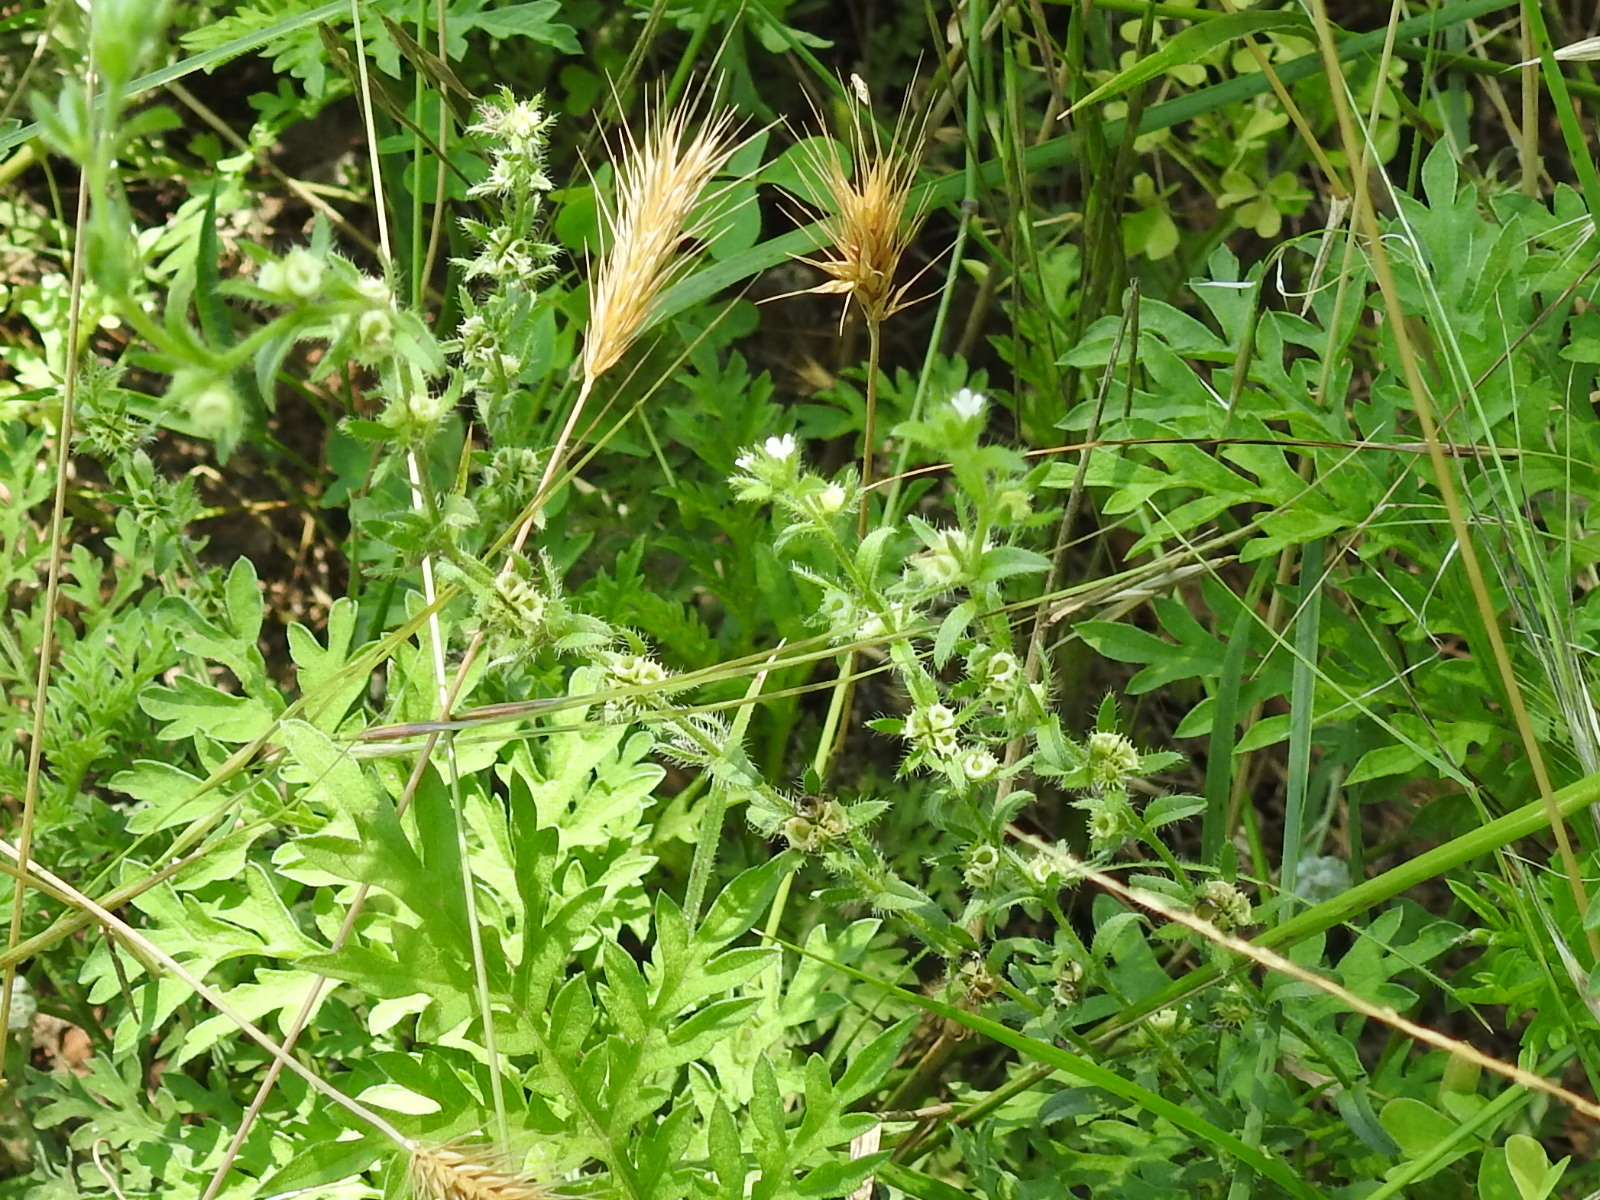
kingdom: Plantae
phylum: Tracheophyta
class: Magnoliopsida
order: Boraginales
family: Boraginaceae
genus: Lappula
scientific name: Lappula occidentalis
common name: Western stickseed
